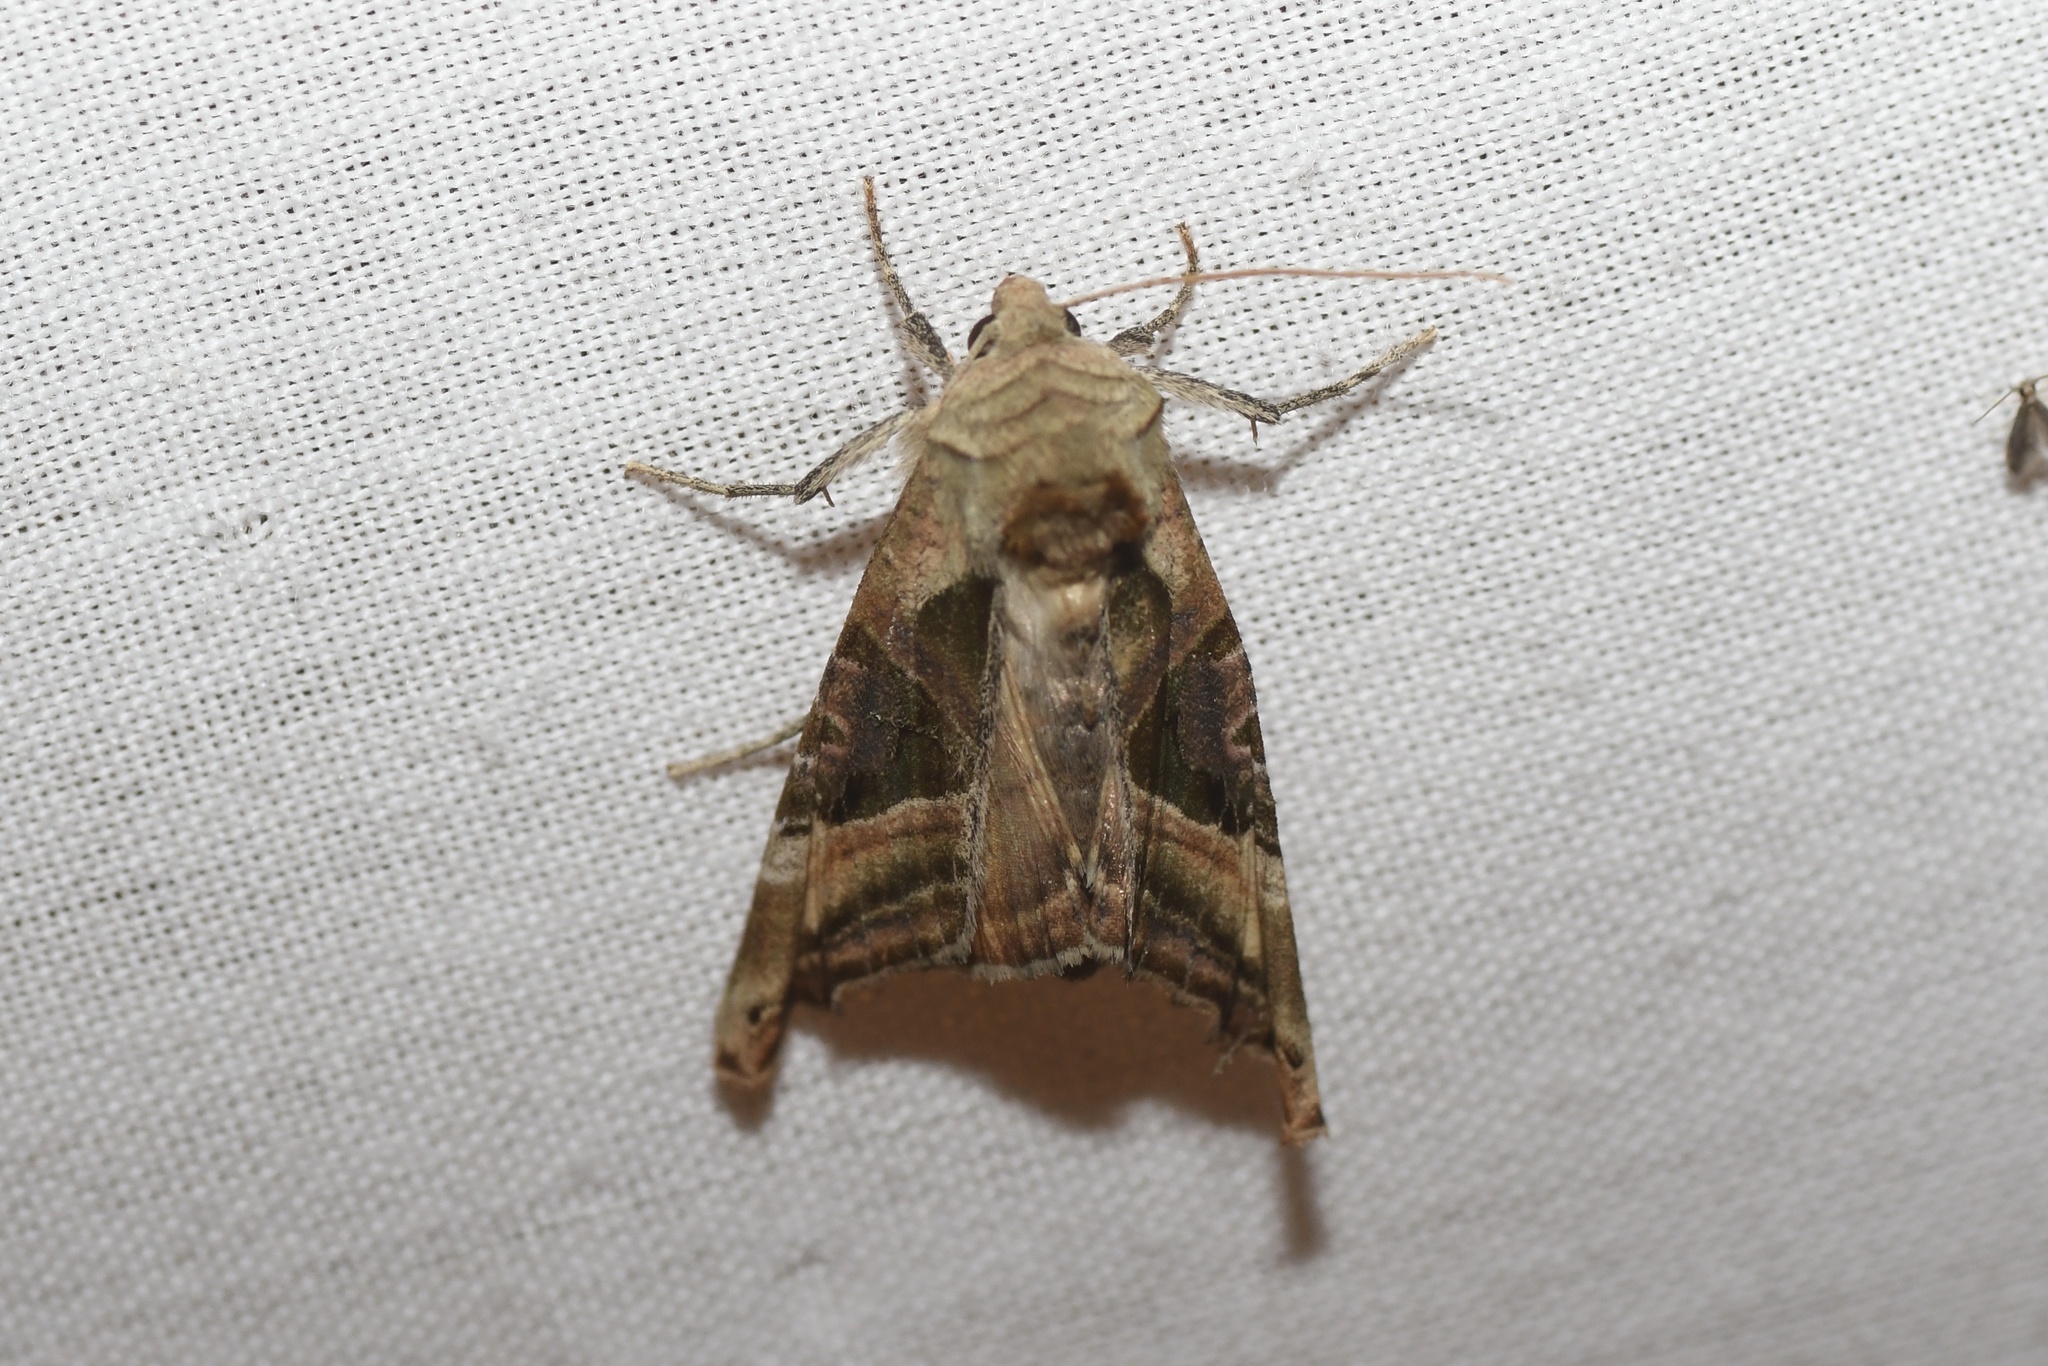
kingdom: Animalia
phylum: Arthropoda
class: Insecta
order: Lepidoptera
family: Noctuidae
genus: Phlogophora
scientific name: Phlogophora iris
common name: Olive angle shades
